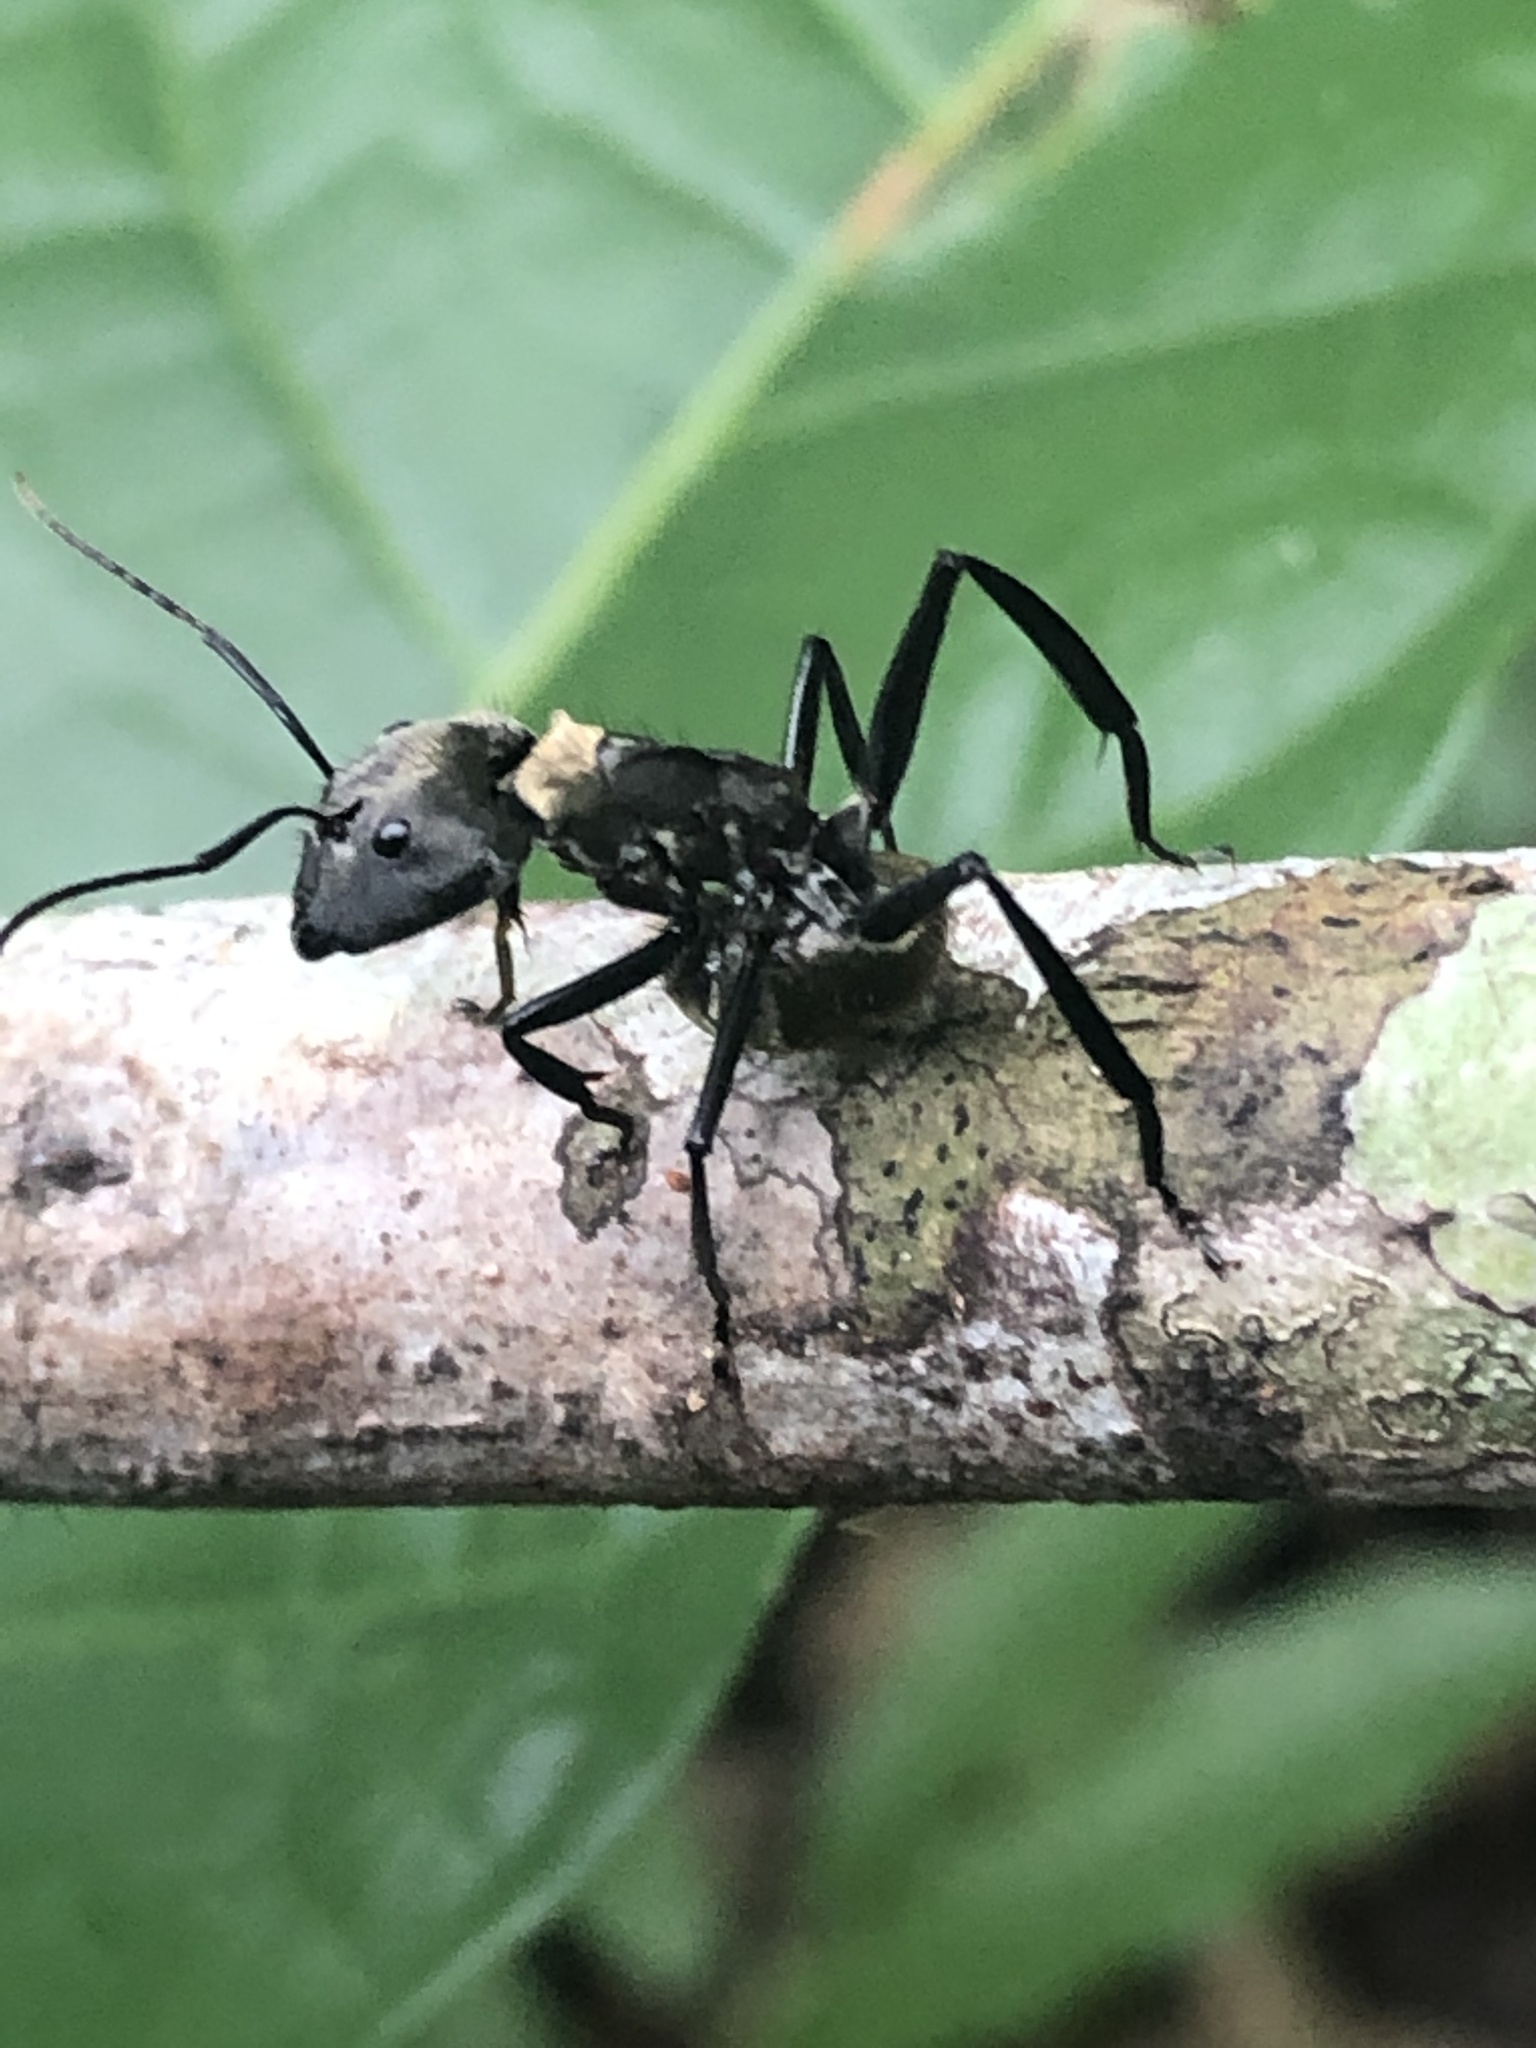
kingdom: Animalia
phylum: Arthropoda
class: Insecta
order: Hymenoptera
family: Formicidae
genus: Camponotus
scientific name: Camponotus sericeiventris
